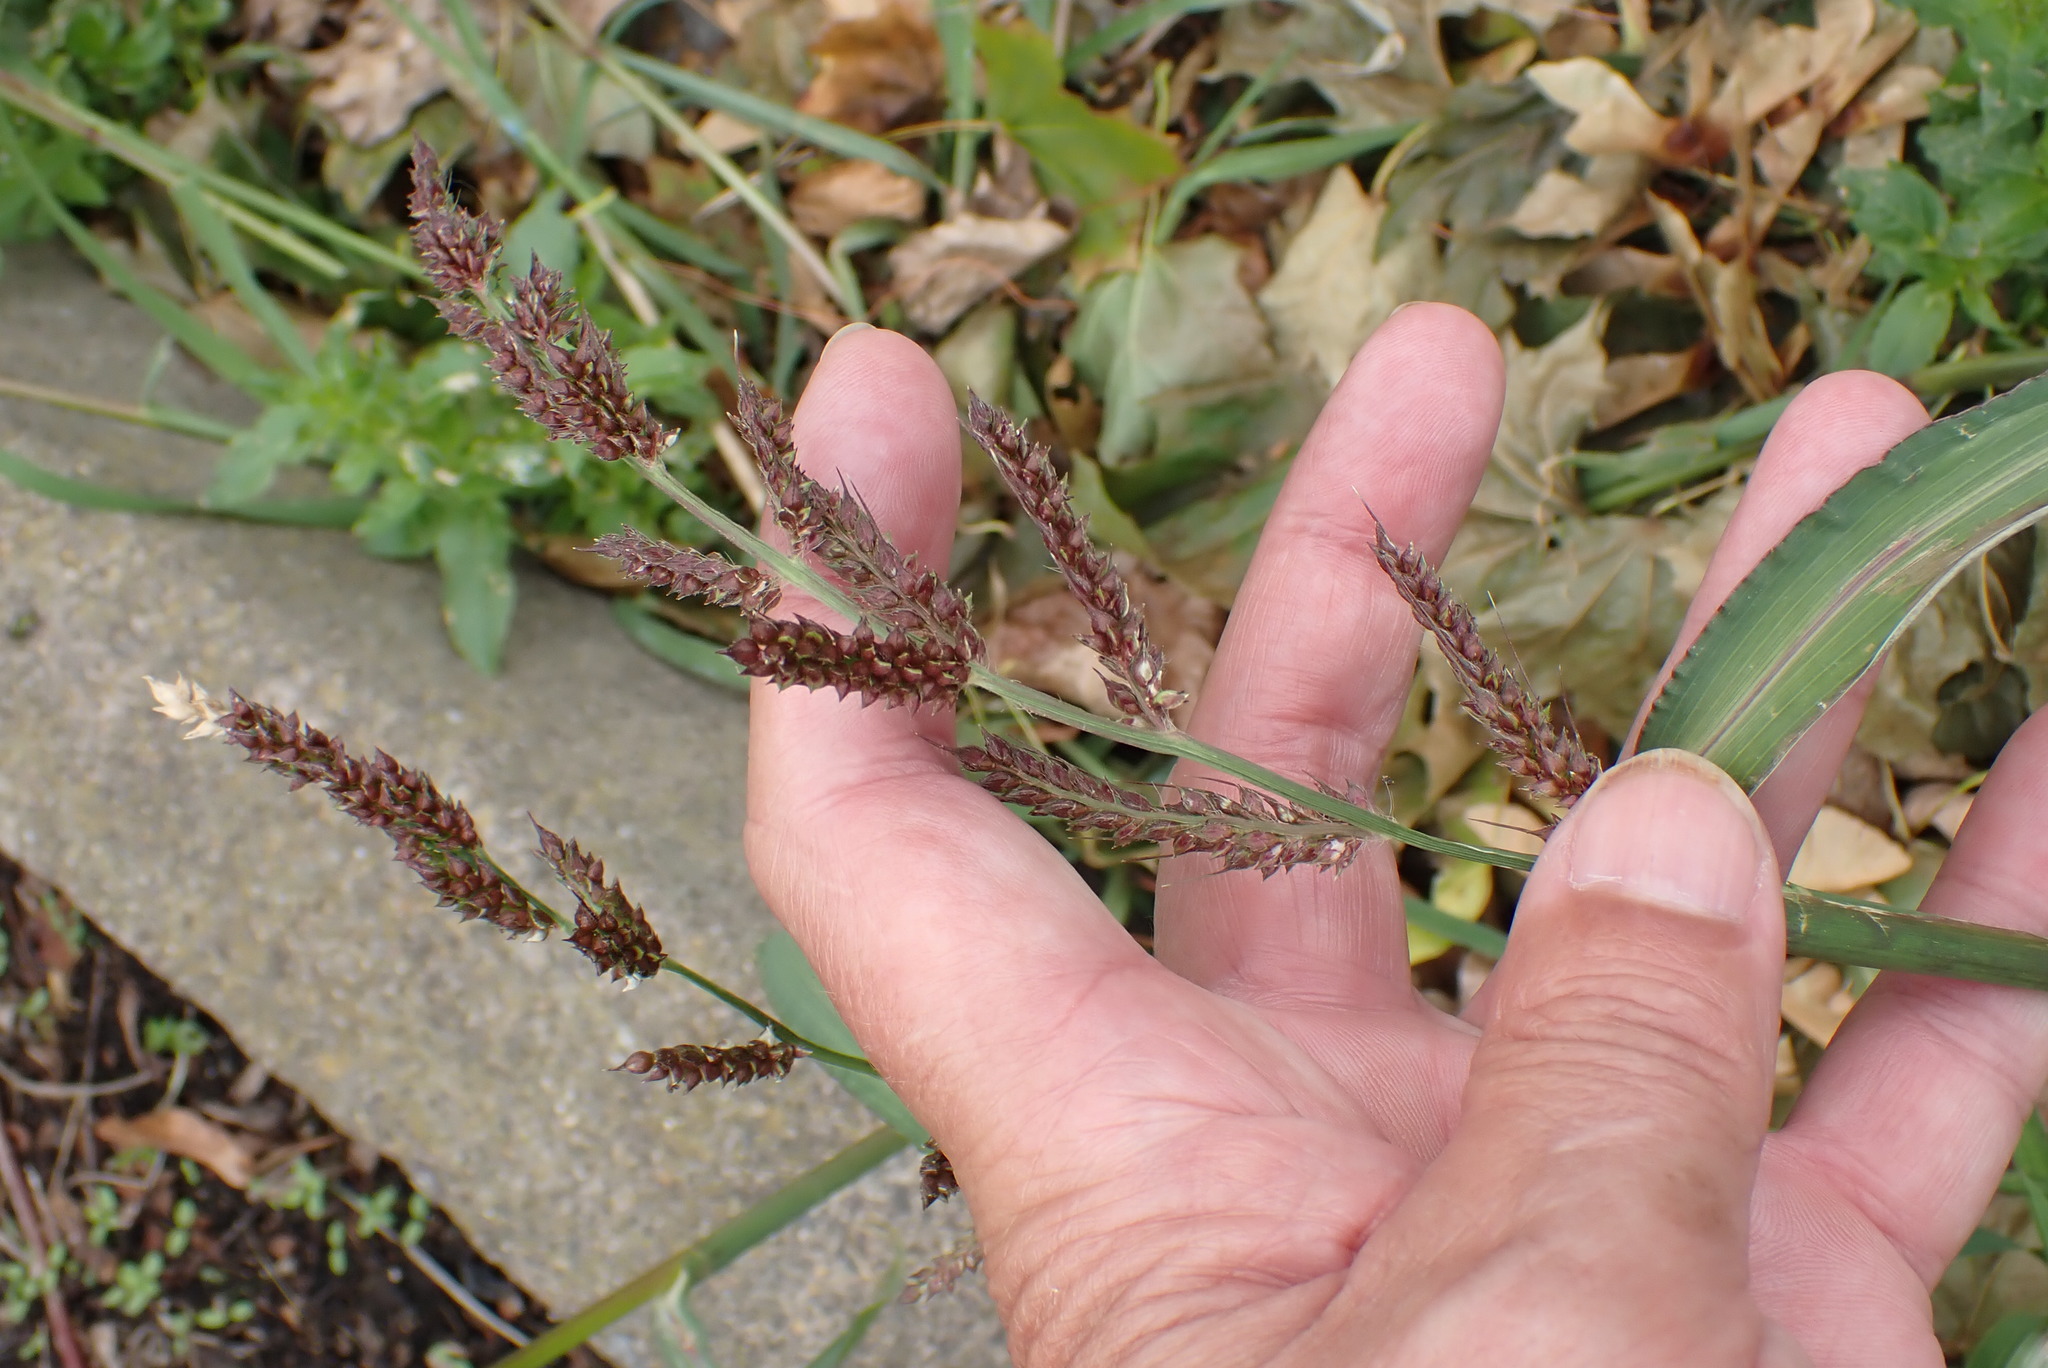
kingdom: Plantae
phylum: Tracheophyta
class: Liliopsida
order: Poales
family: Poaceae
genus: Echinochloa
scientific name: Echinochloa crus-galli
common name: Cockspur
